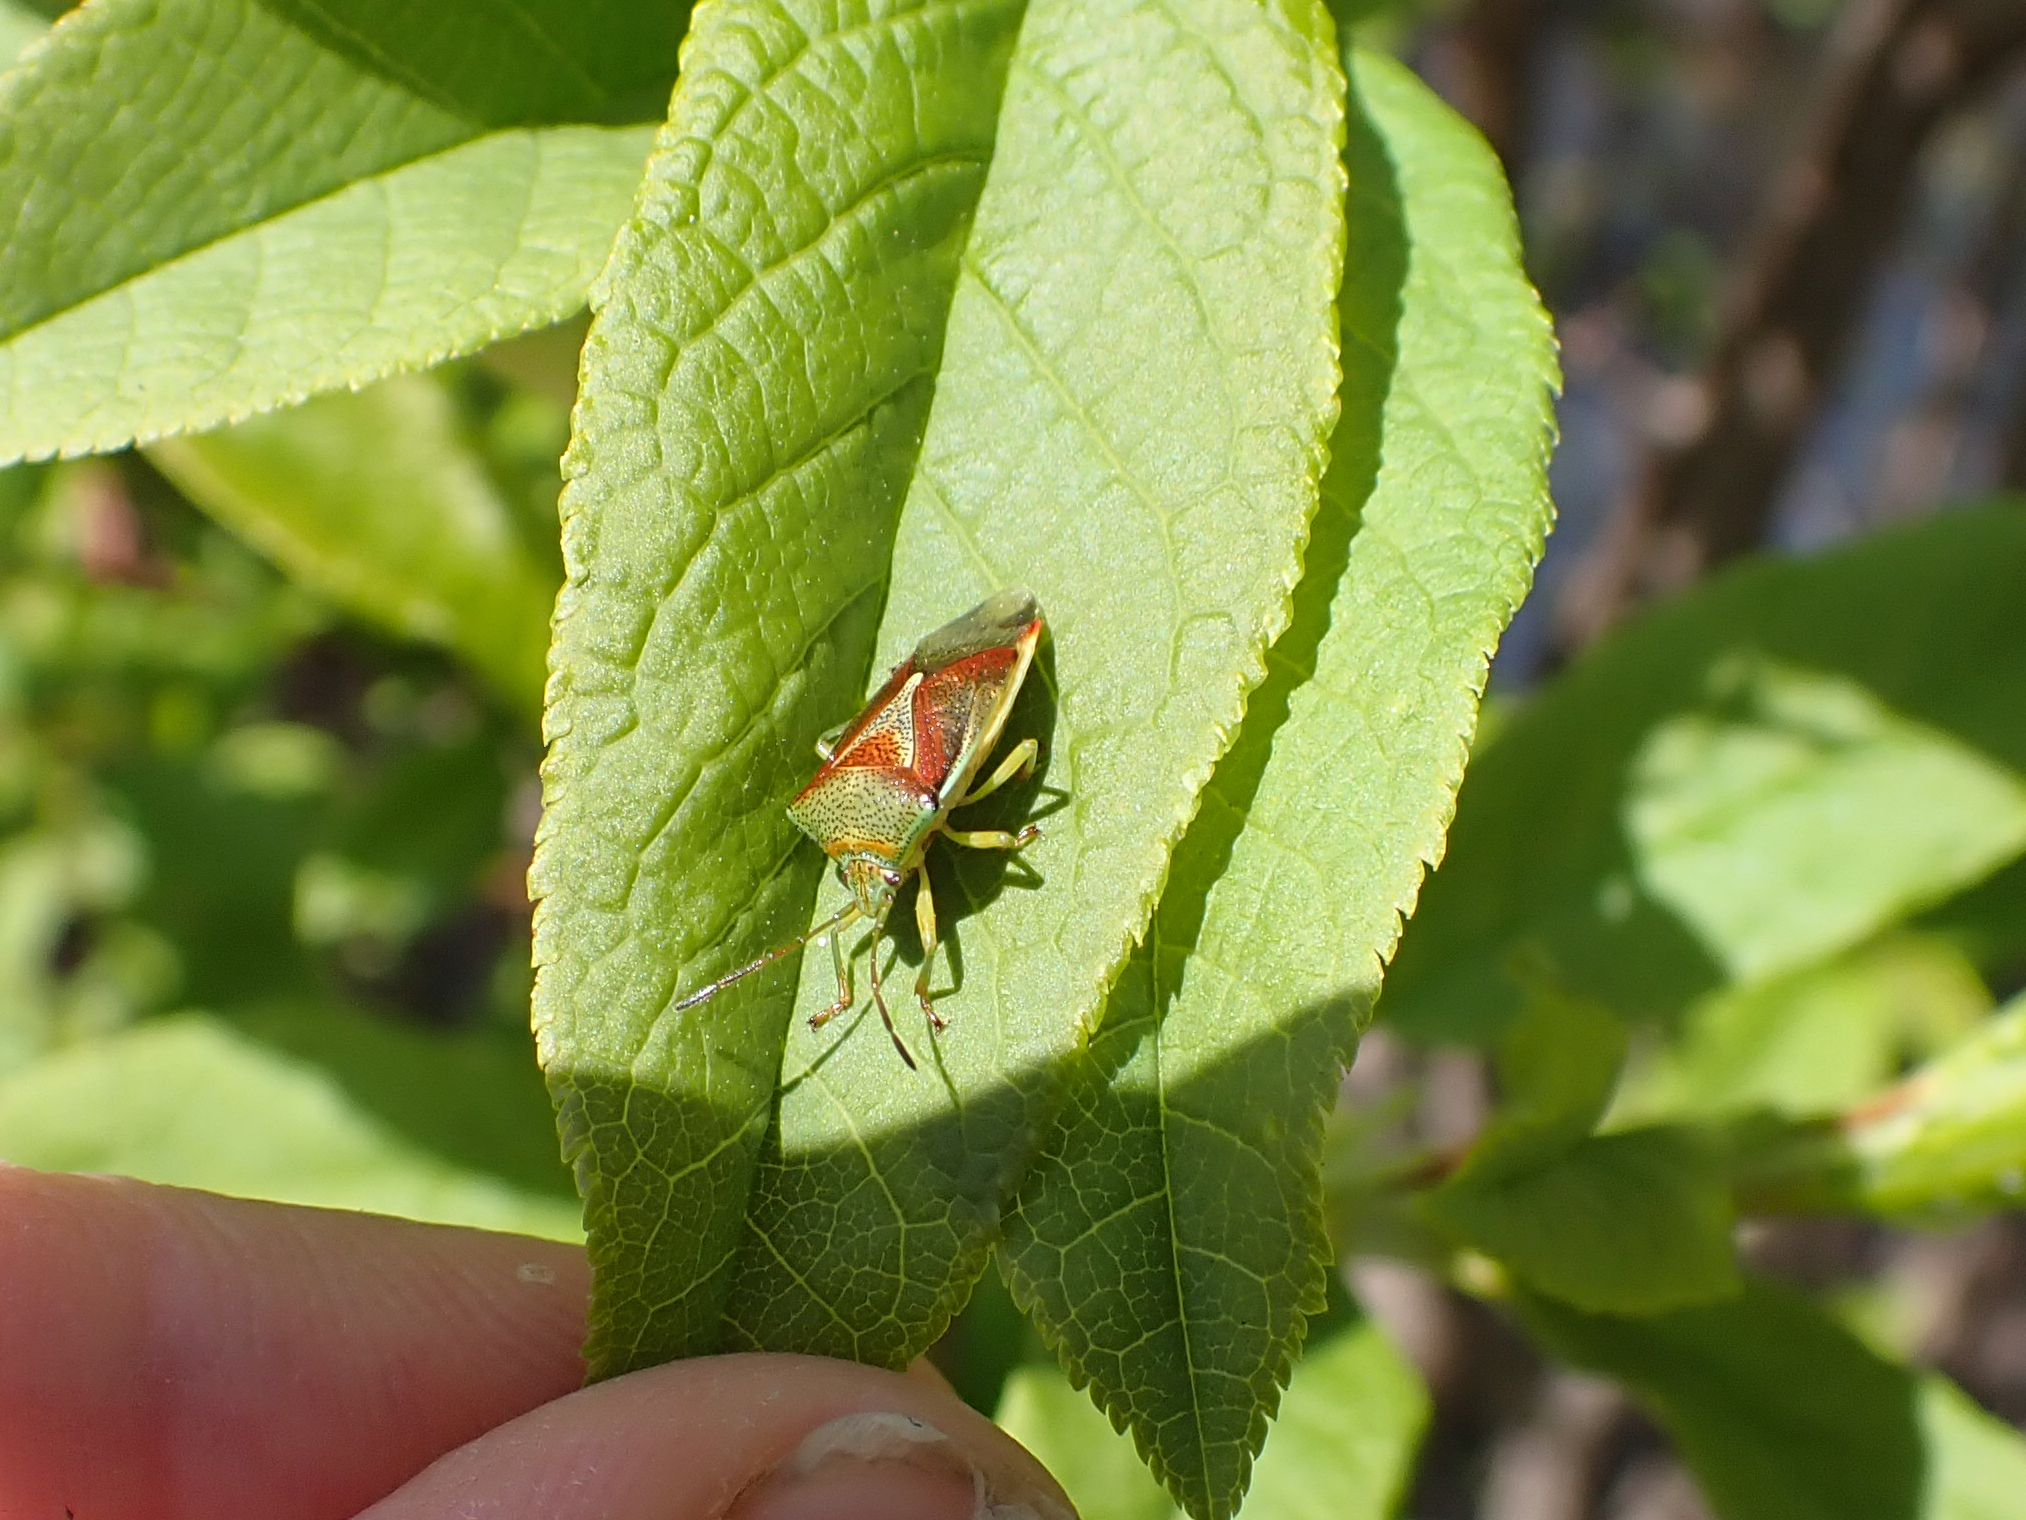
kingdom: Animalia
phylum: Arthropoda
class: Insecta
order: Hemiptera
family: Acanthosomatidae
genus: Elasmostethus
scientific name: Elasmostethus interstinctus
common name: Birch shieldbug
